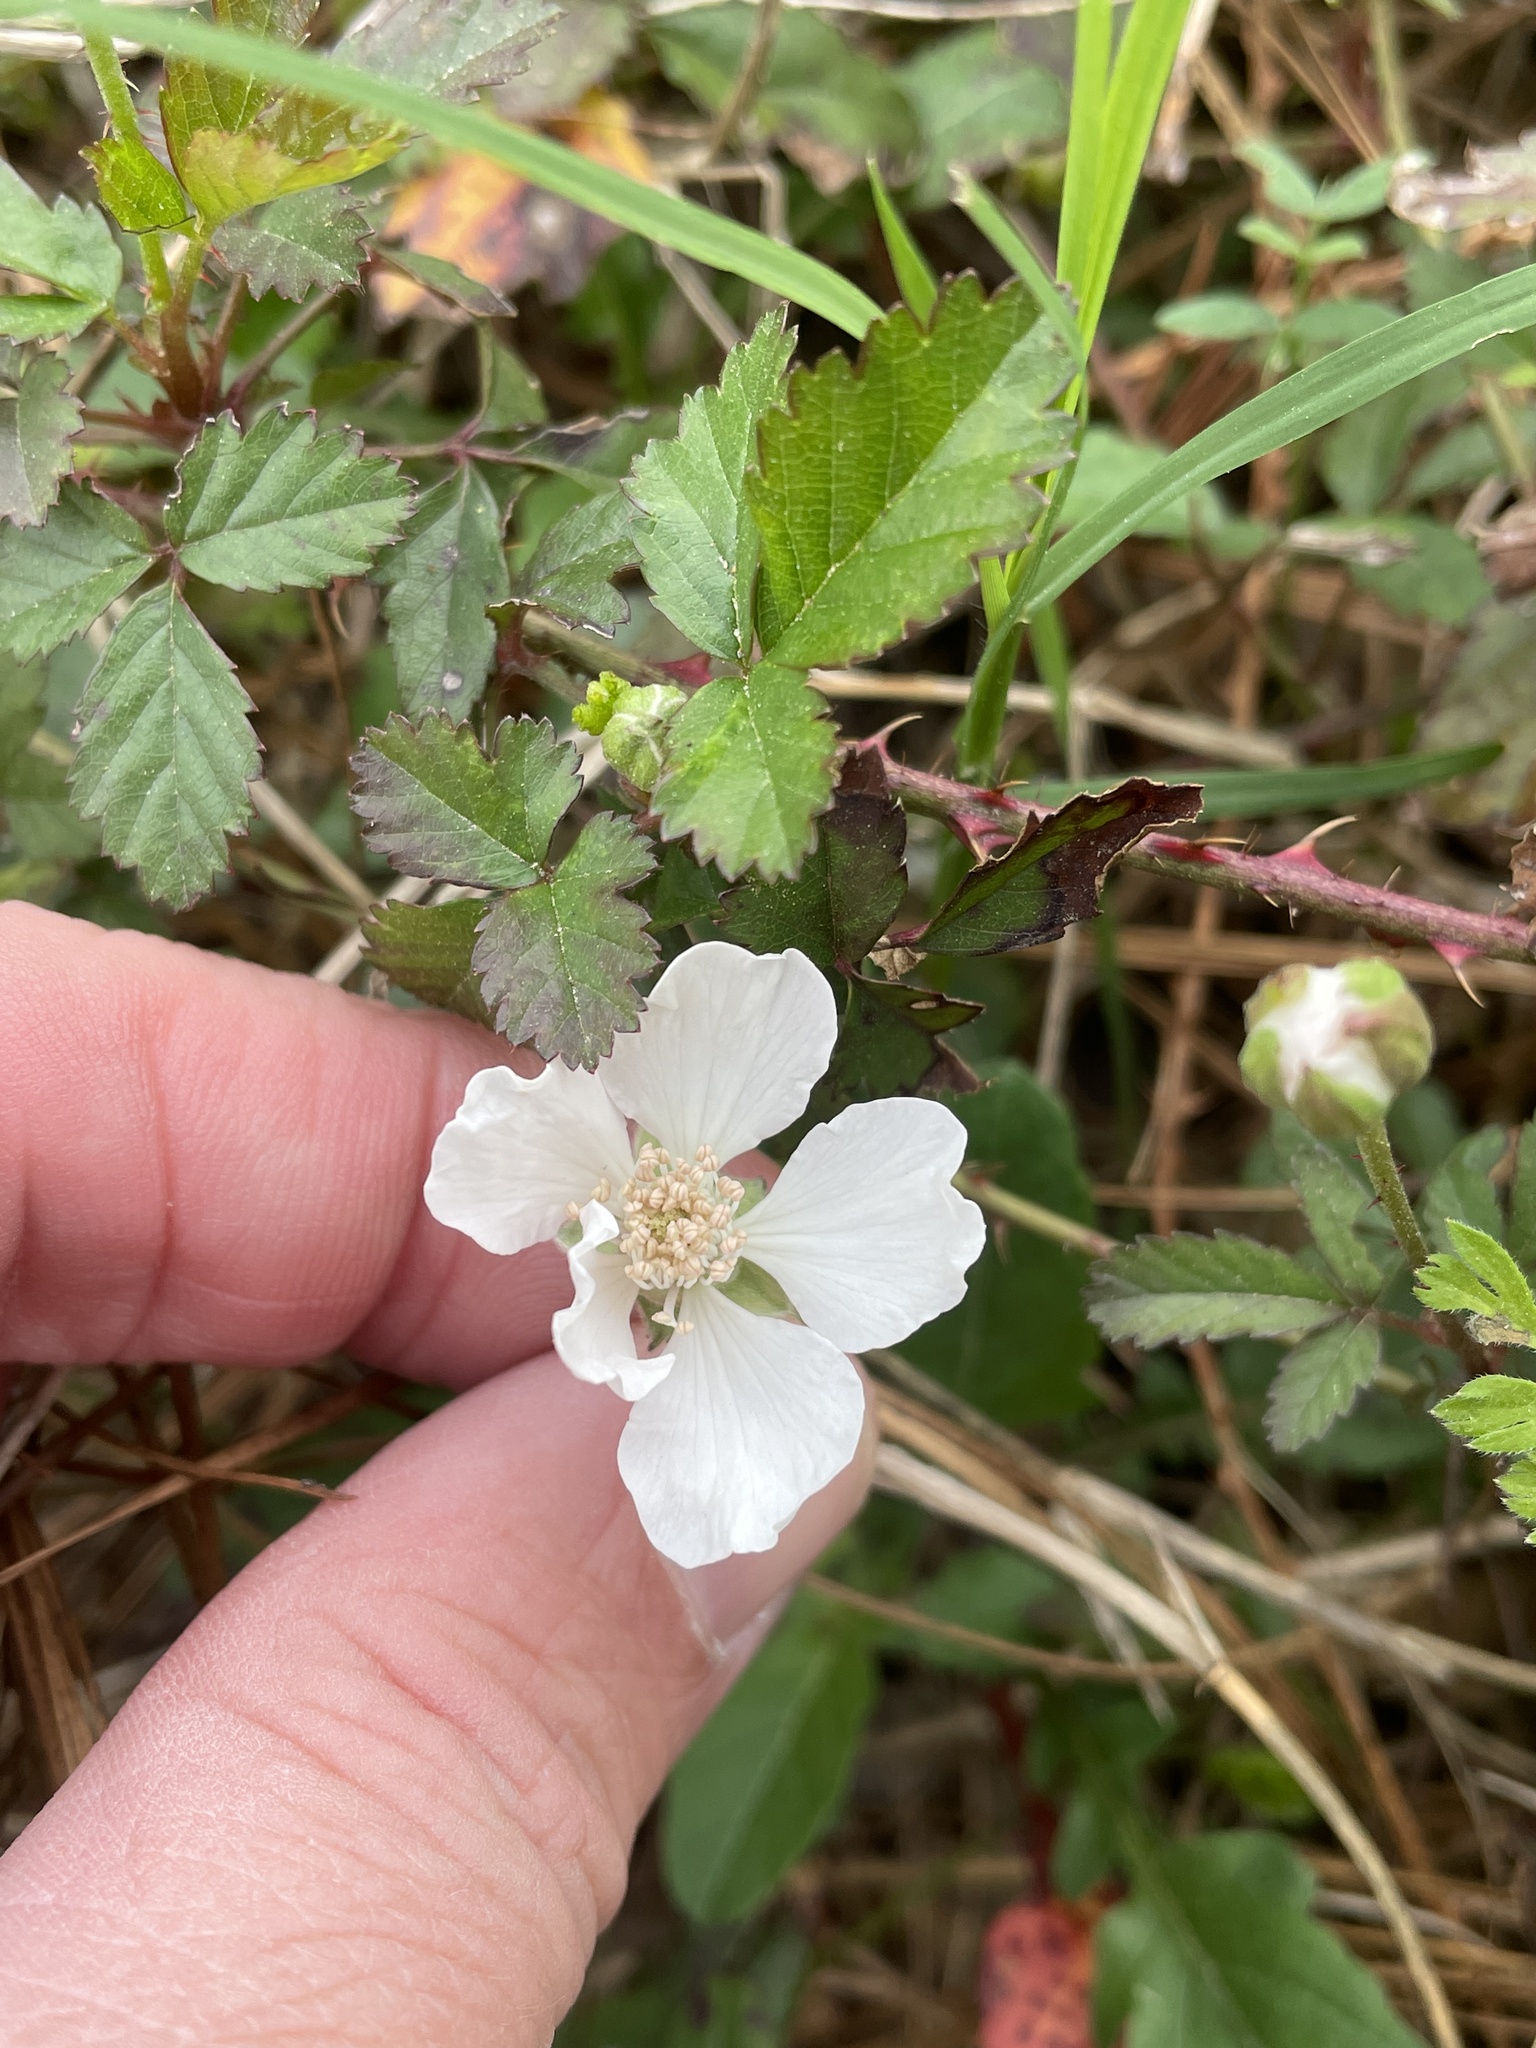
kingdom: Plantae
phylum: Tracheophyta
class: Magnoliopsida
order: Rosales
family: Rosaceae
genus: Rubus
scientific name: Rubus trivialis
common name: Southern dewberry
